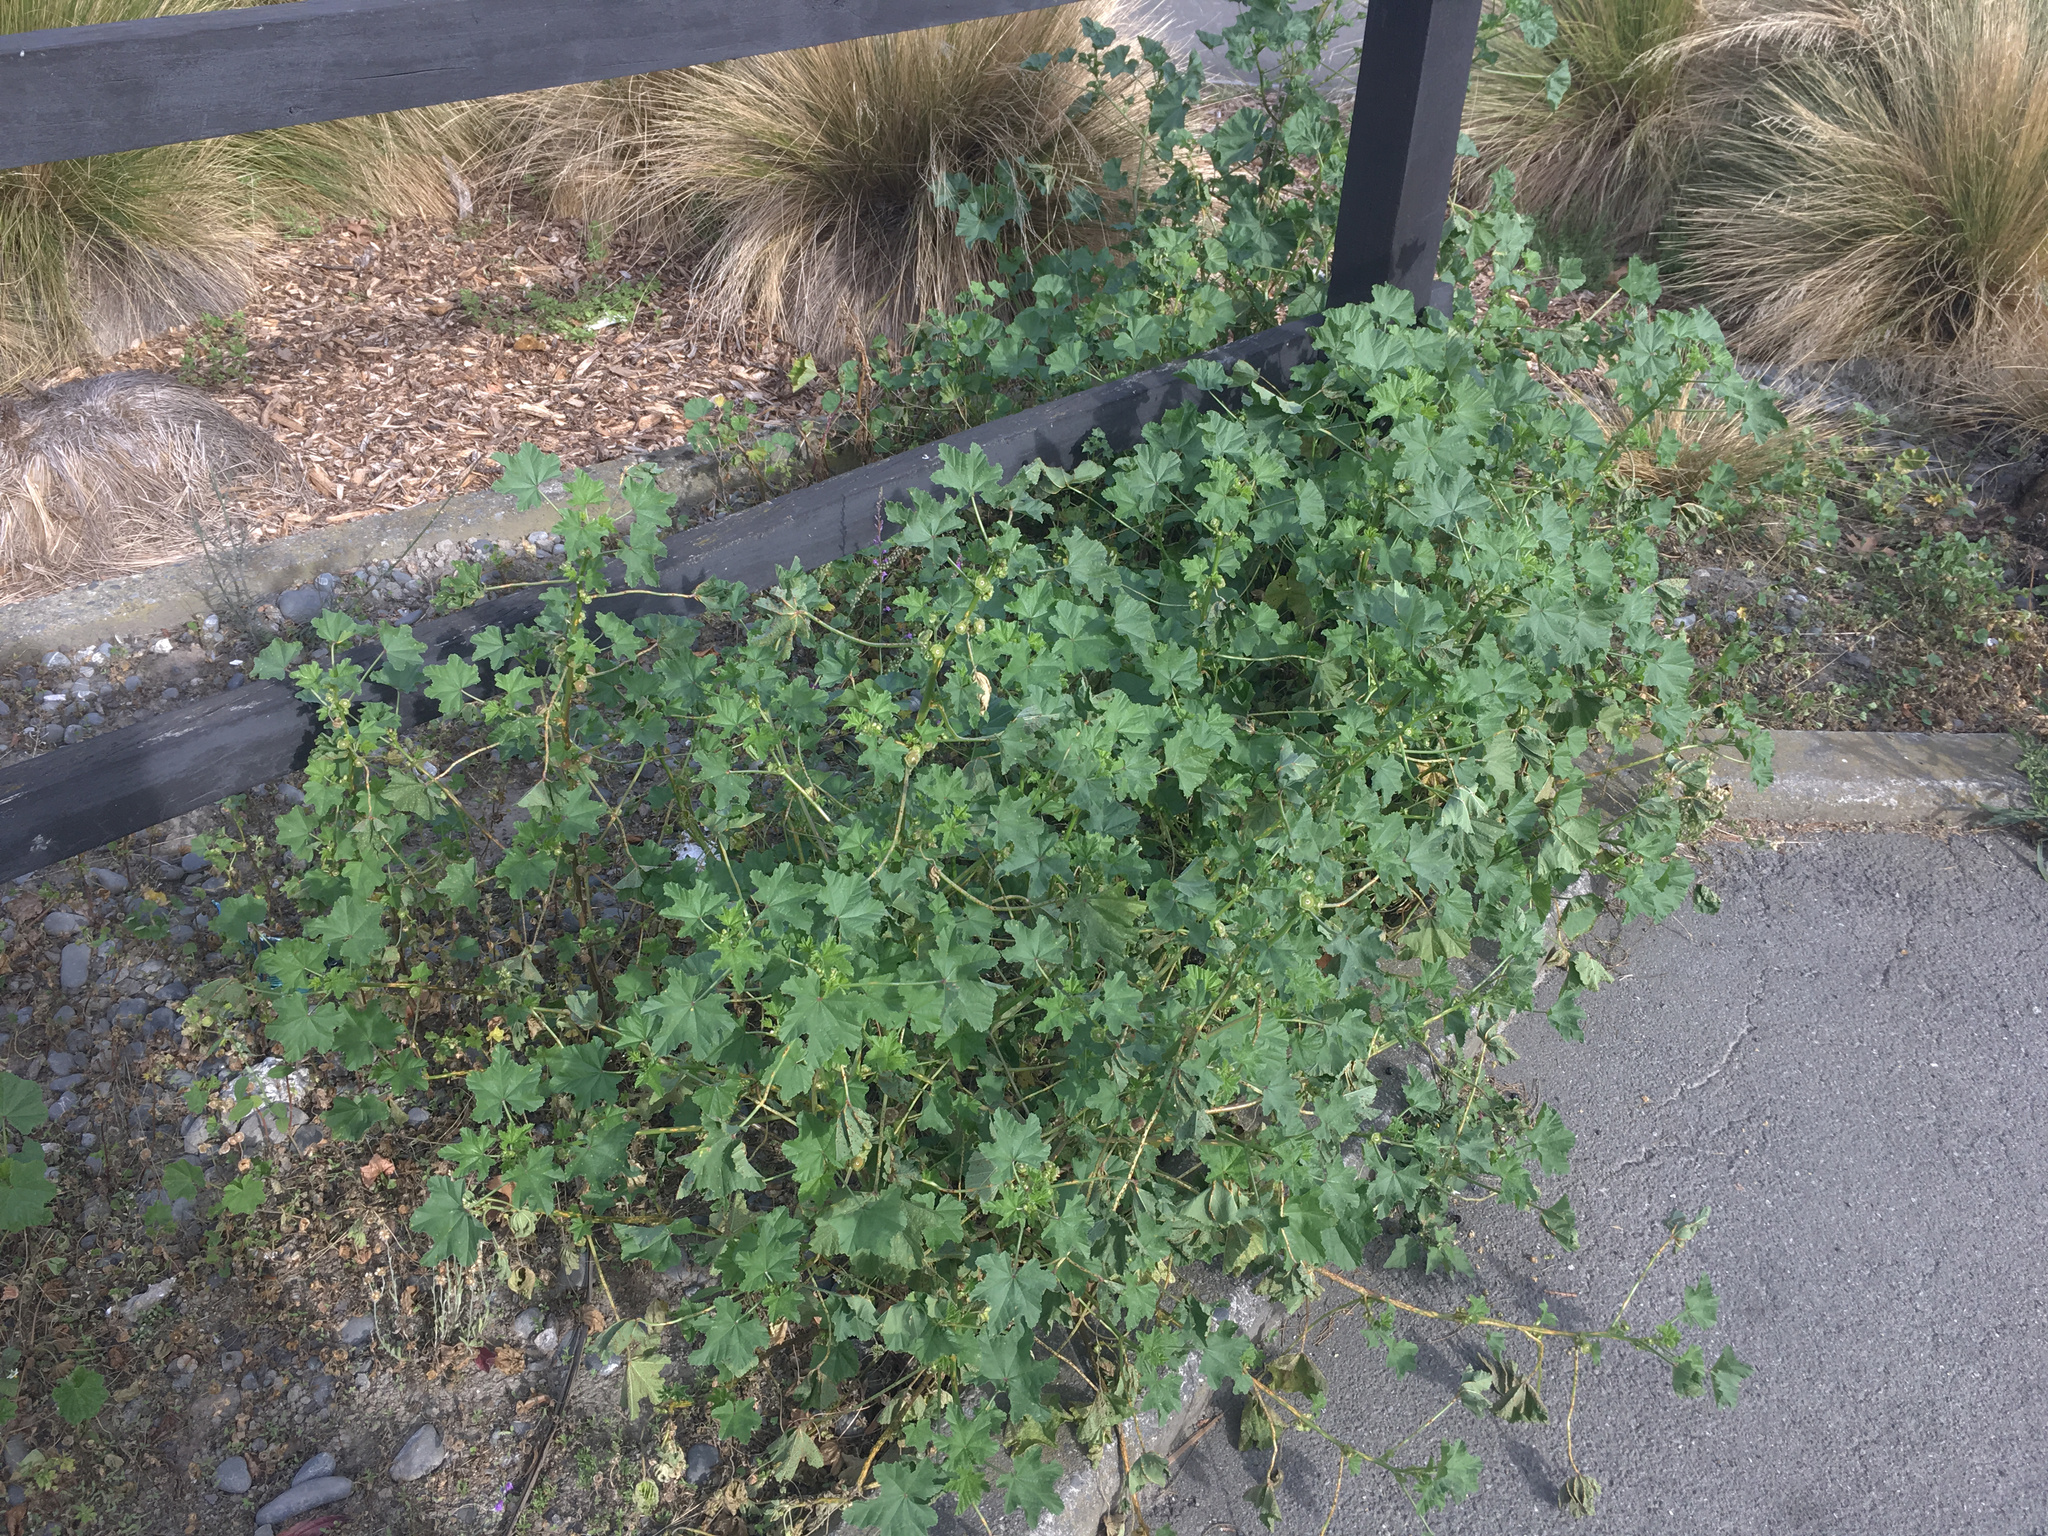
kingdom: Plantae
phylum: Tracheophyta
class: Magnoliopsida
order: Malvales
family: Malvaceae
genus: Malva
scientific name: Malva parviflora
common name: Least mallow
